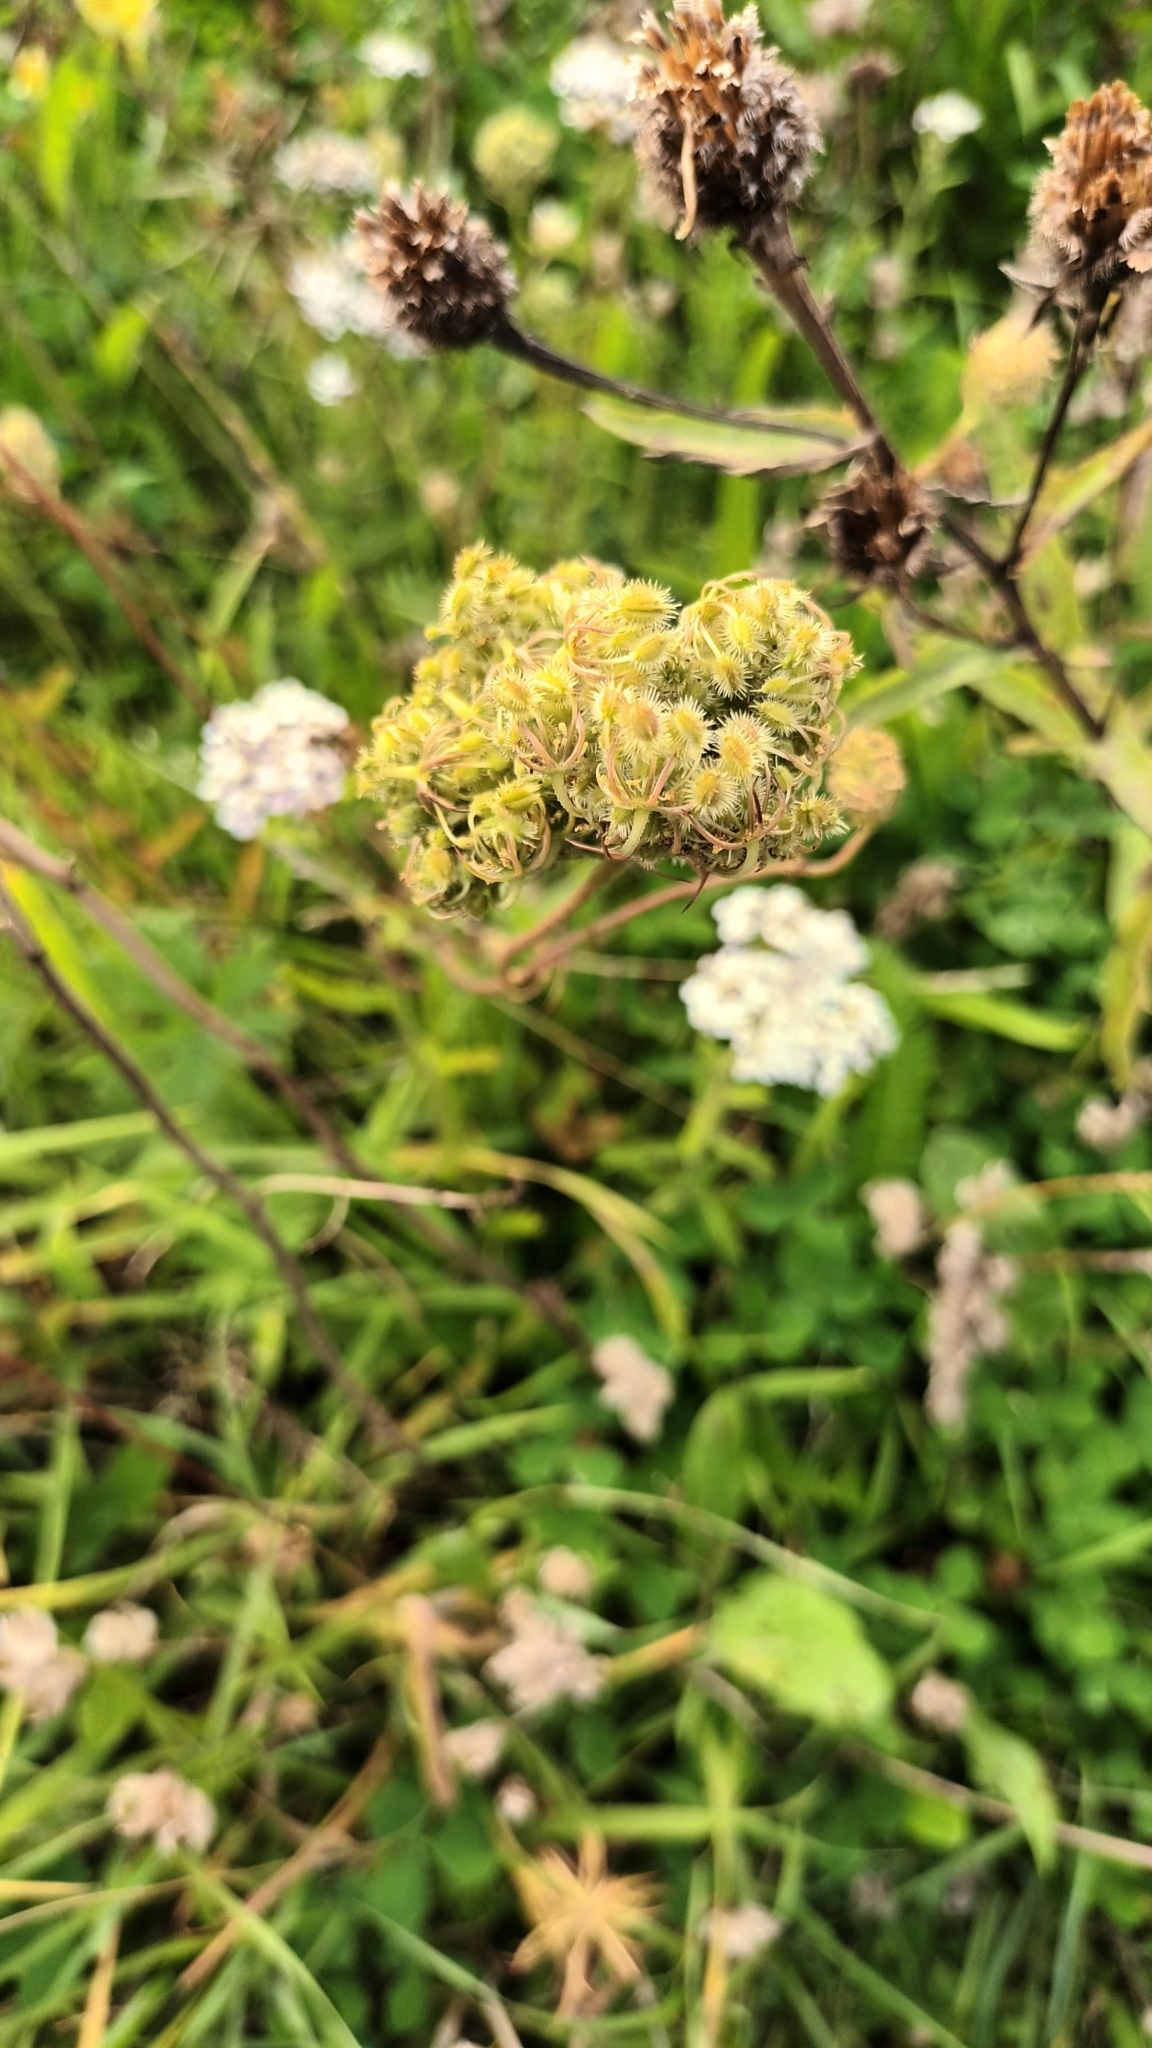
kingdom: Plantae
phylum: Tracheophyta
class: Magnoliopsida
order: Apiales
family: Apiaceae
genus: Daucus
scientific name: Daucus carota
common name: Wild carrot
